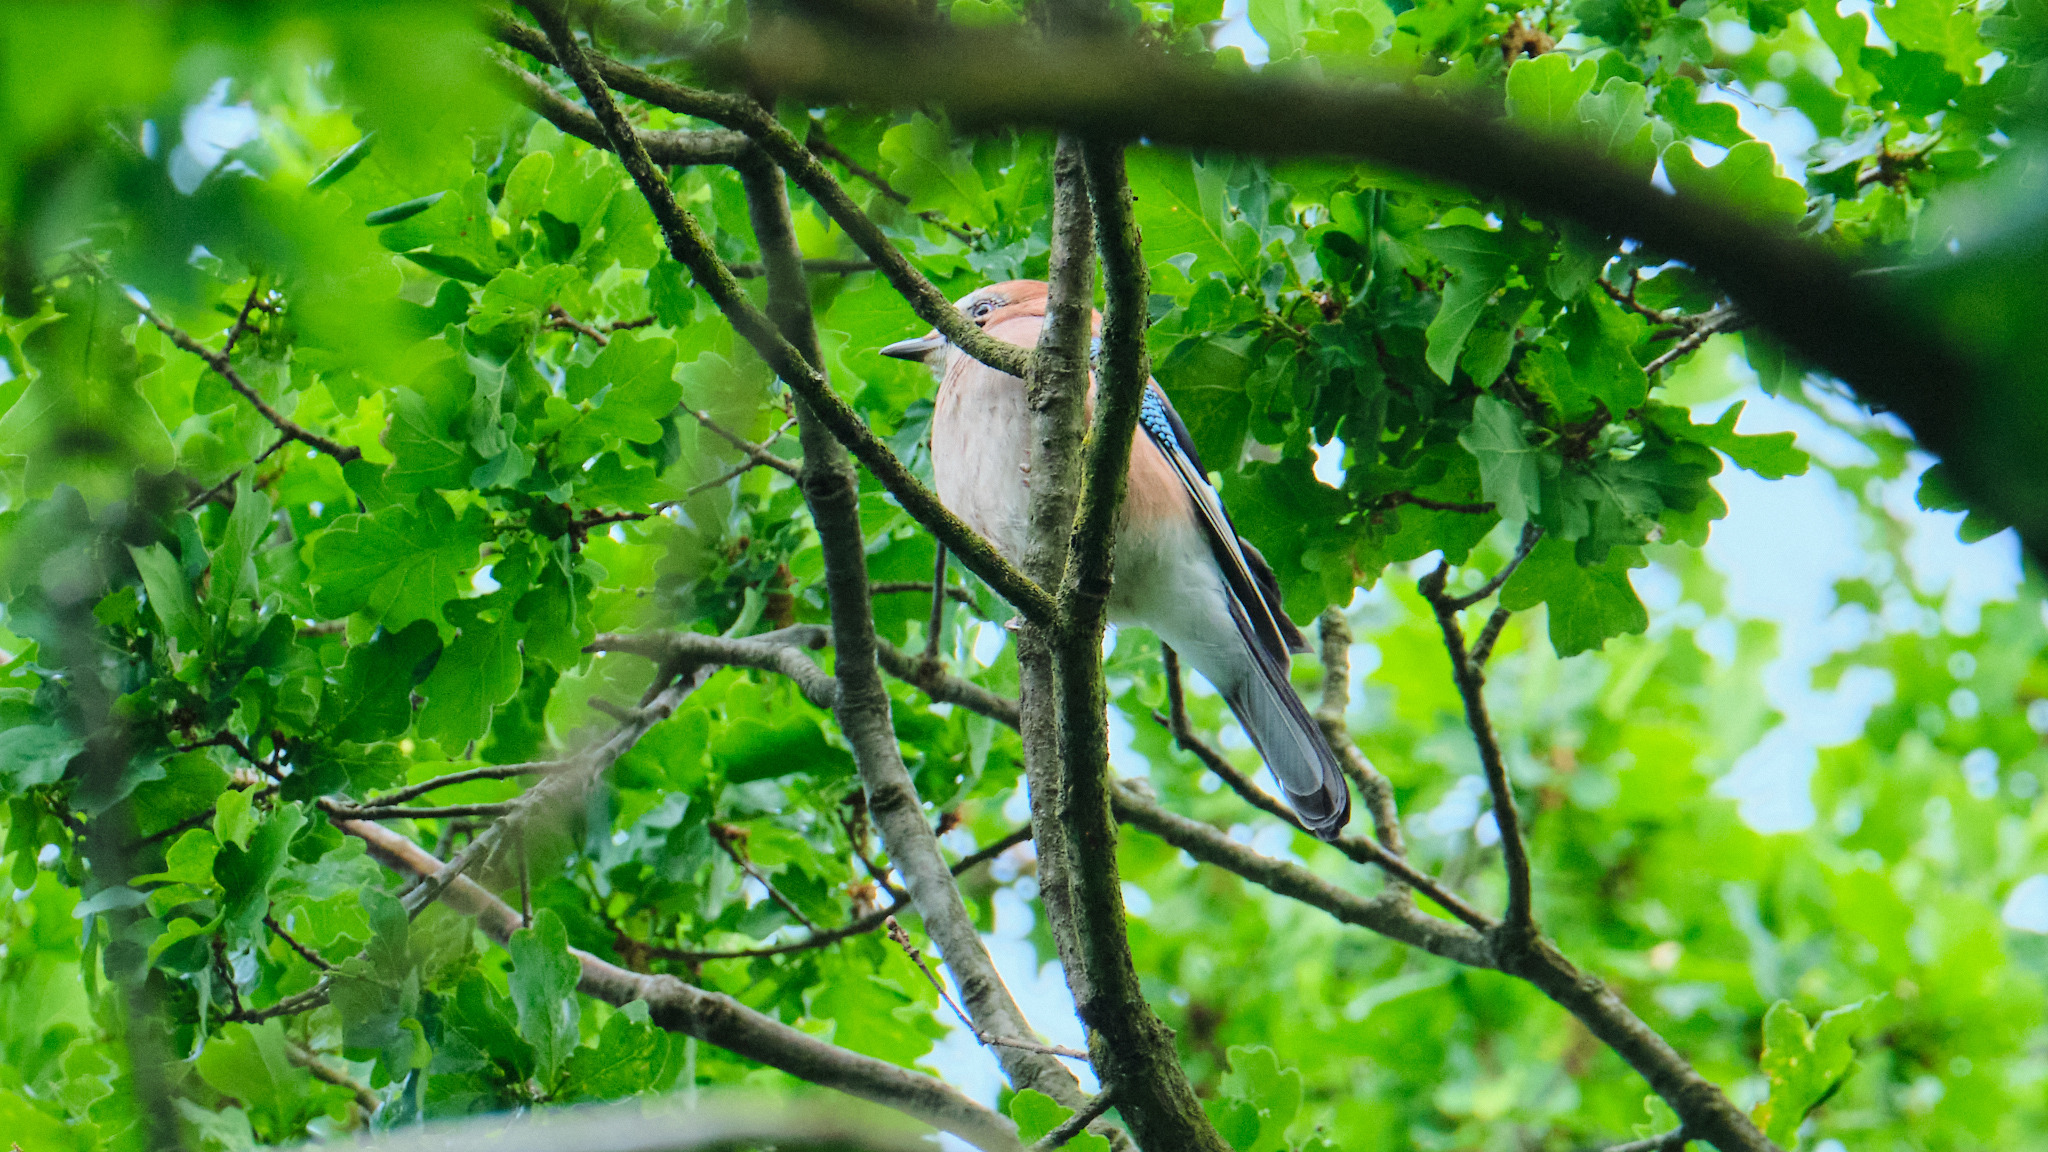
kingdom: Animalia
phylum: Chordata
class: Aves
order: Passeriformes
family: Corvidae
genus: Garrulus
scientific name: Garrulus glandarius
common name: Eurasian jay
